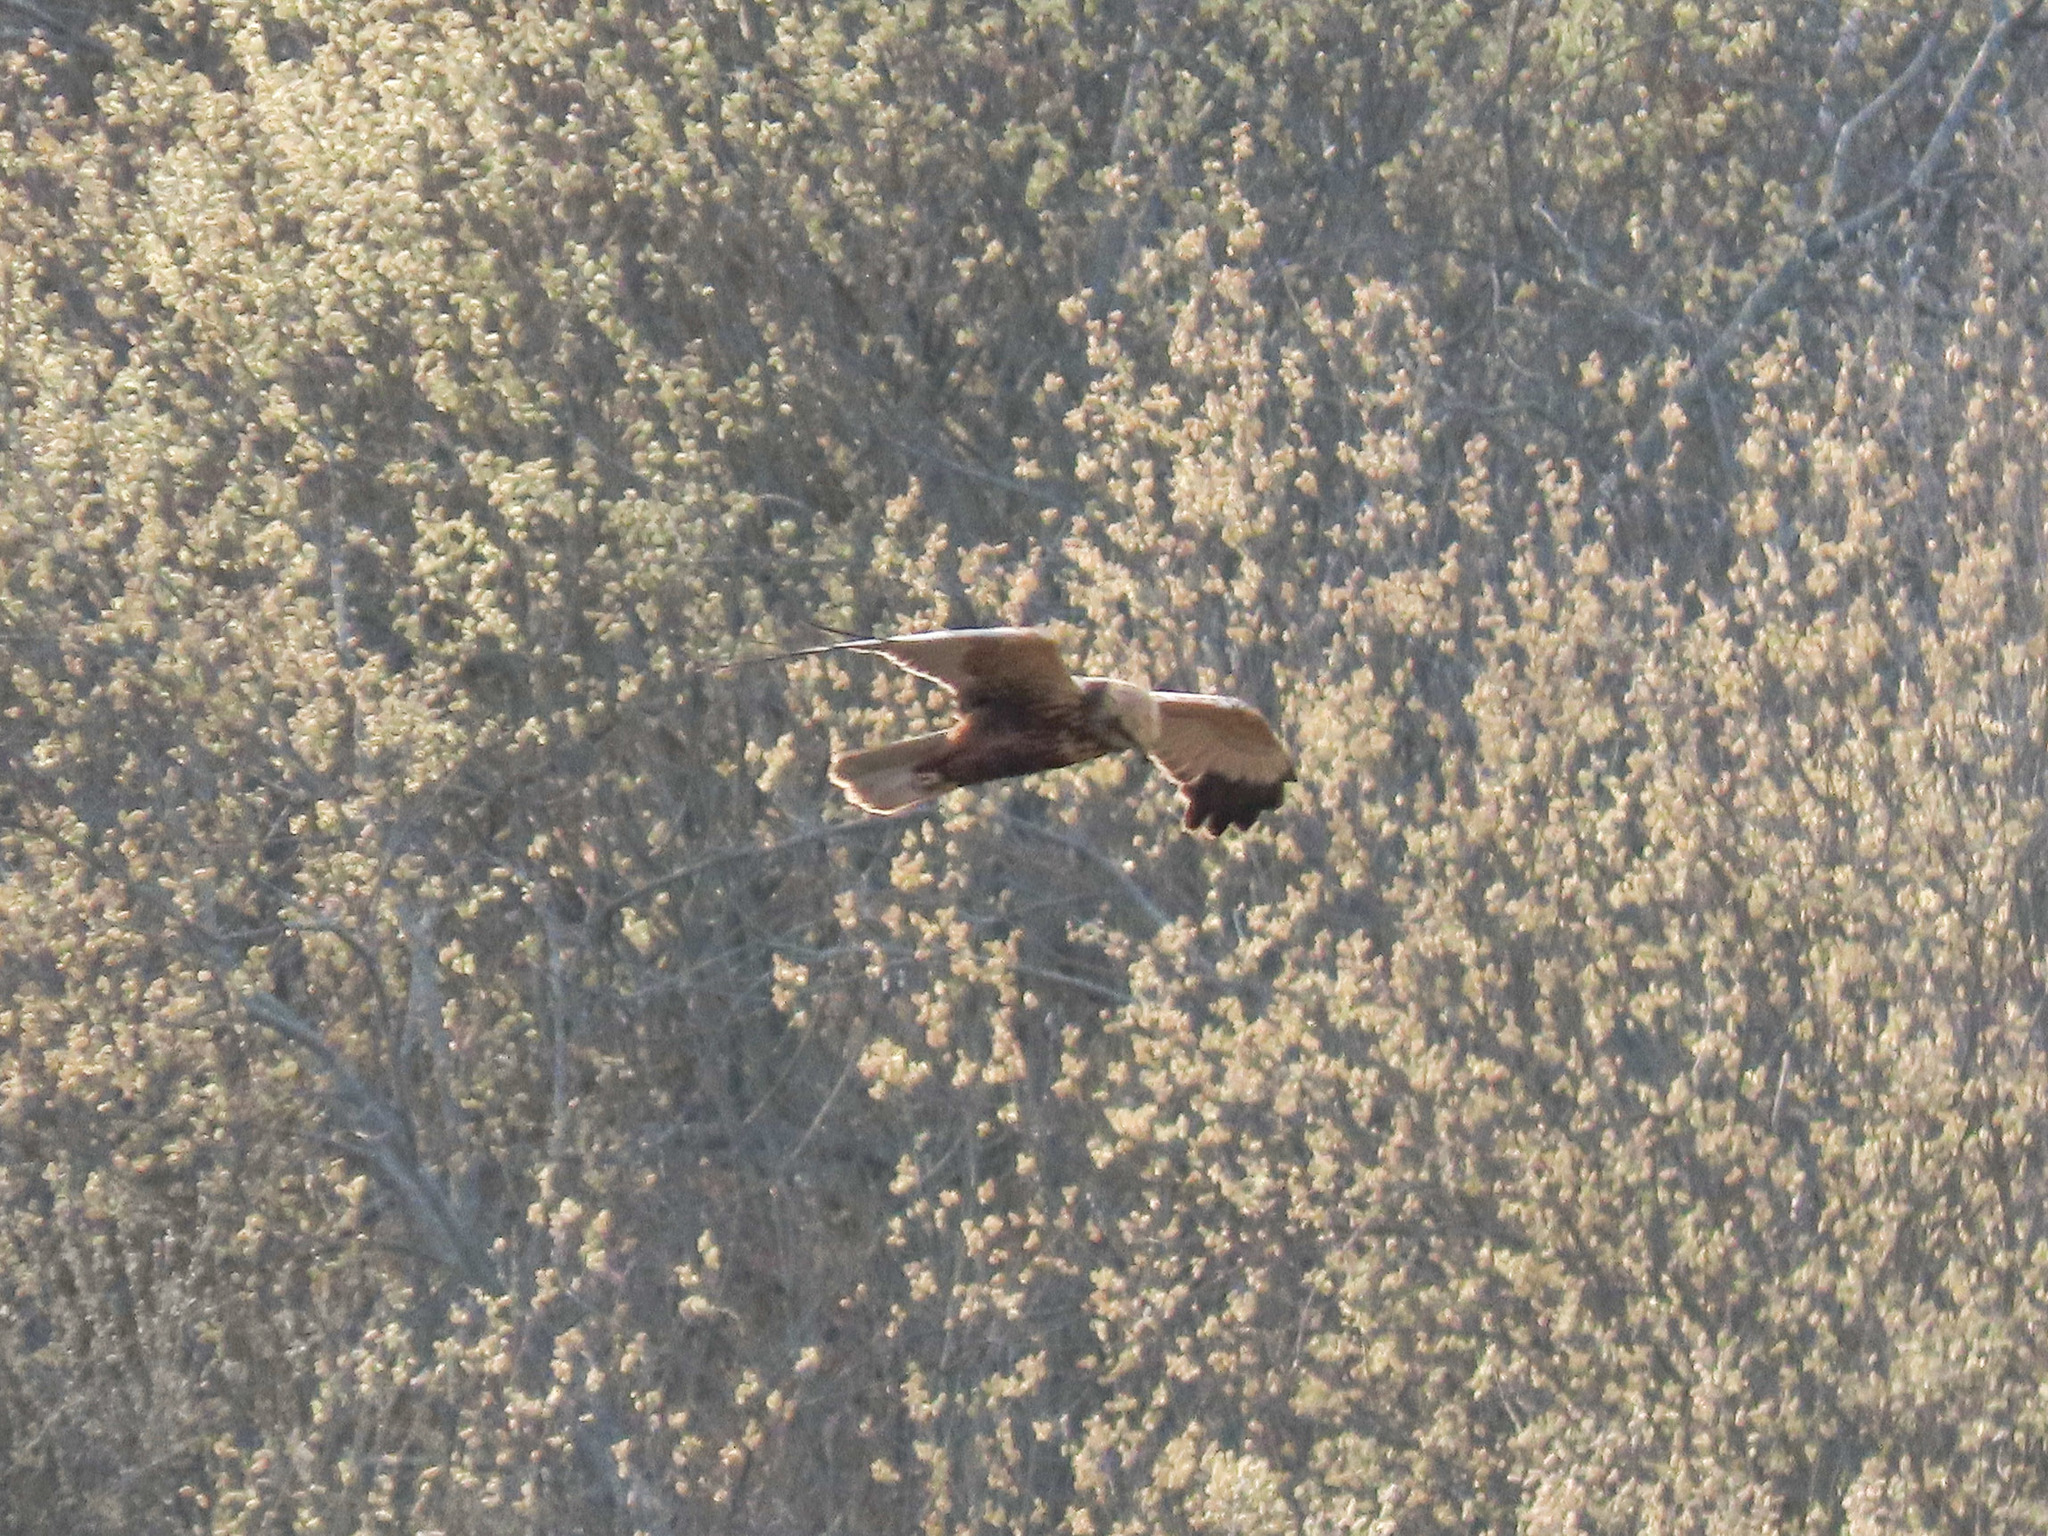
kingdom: Animalia
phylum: Chordata
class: Aves
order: Accipitriformes
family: Accipitridae
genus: Circus
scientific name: Circus aeruginosus
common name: Western marsh harrier
